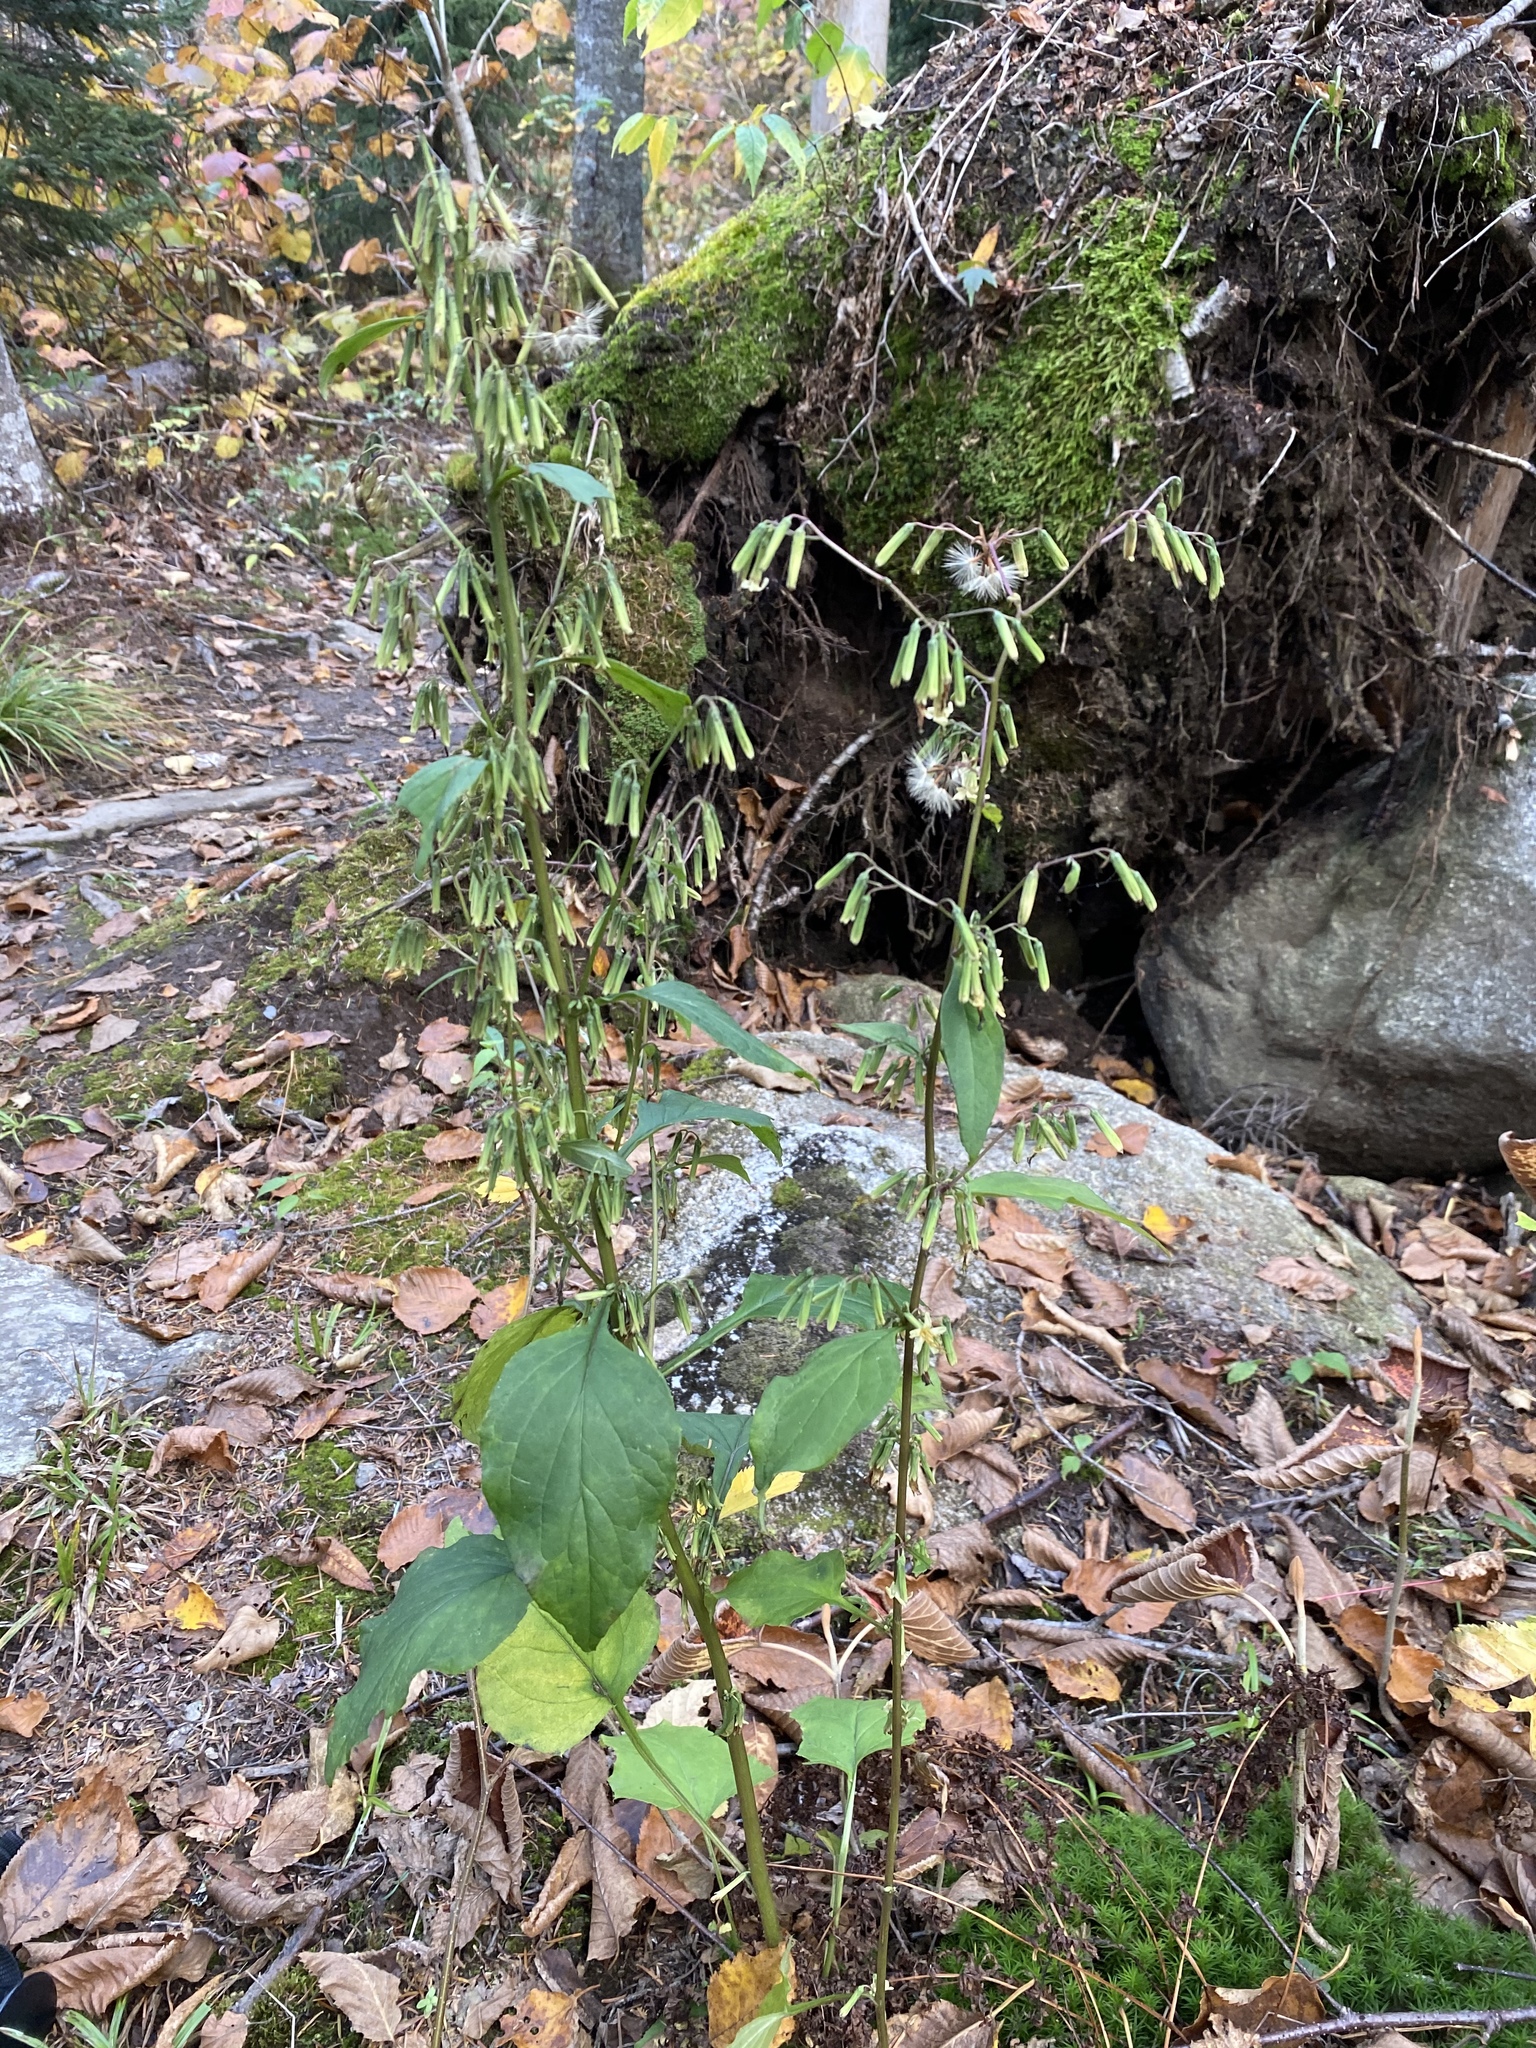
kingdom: Plantae
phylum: Tracheophyta
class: Magnoliopsida
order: Asterales
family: Asteraceae
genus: Nabalus
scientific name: Nabalus altissima
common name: Tall rattlesnakeroot
